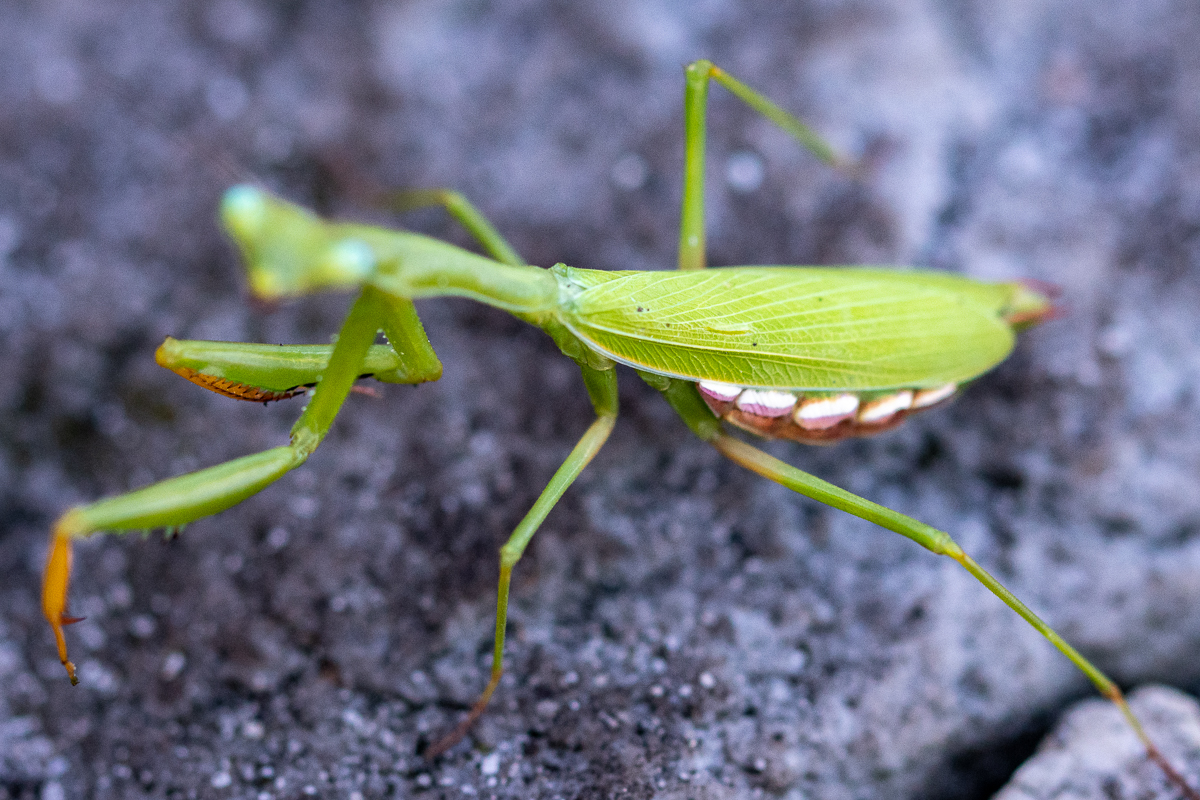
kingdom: Animalia
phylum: Arthropoda
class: Insecta
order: Mantodea
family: Miomantidae
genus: Miomantis
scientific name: Miomantis caffra
